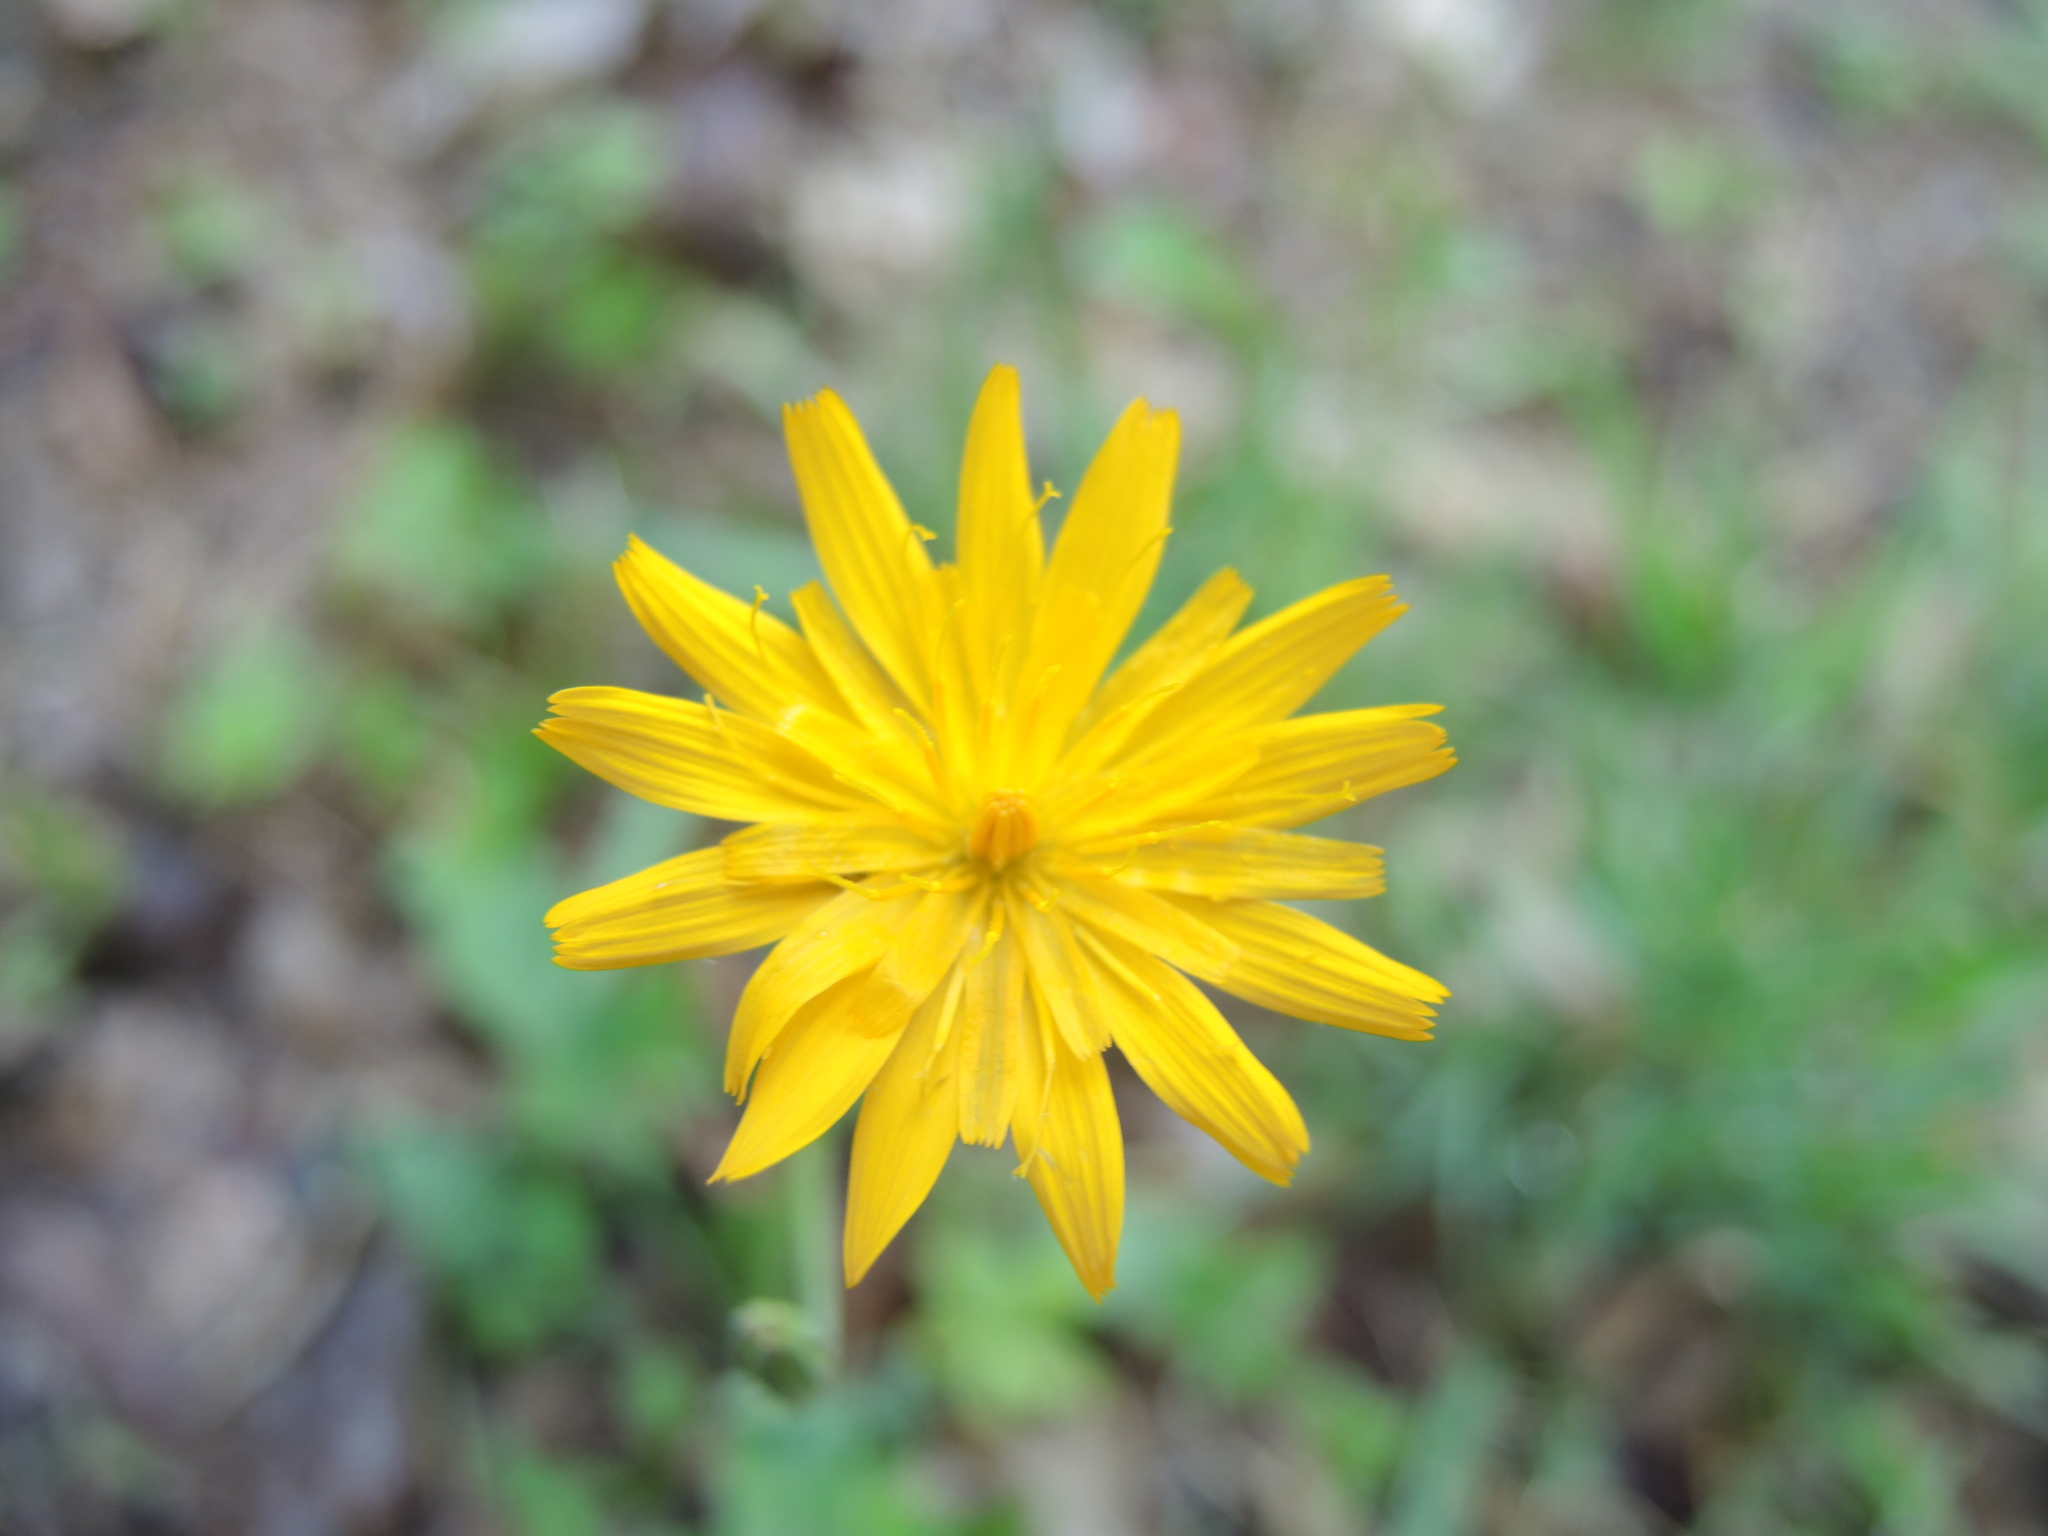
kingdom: Plantae
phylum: Tracheophyta
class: Magnoliopsida
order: Asterales
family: Asteraceae
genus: Krigia
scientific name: Krigia biflora
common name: Orange dwarf-dandelion
